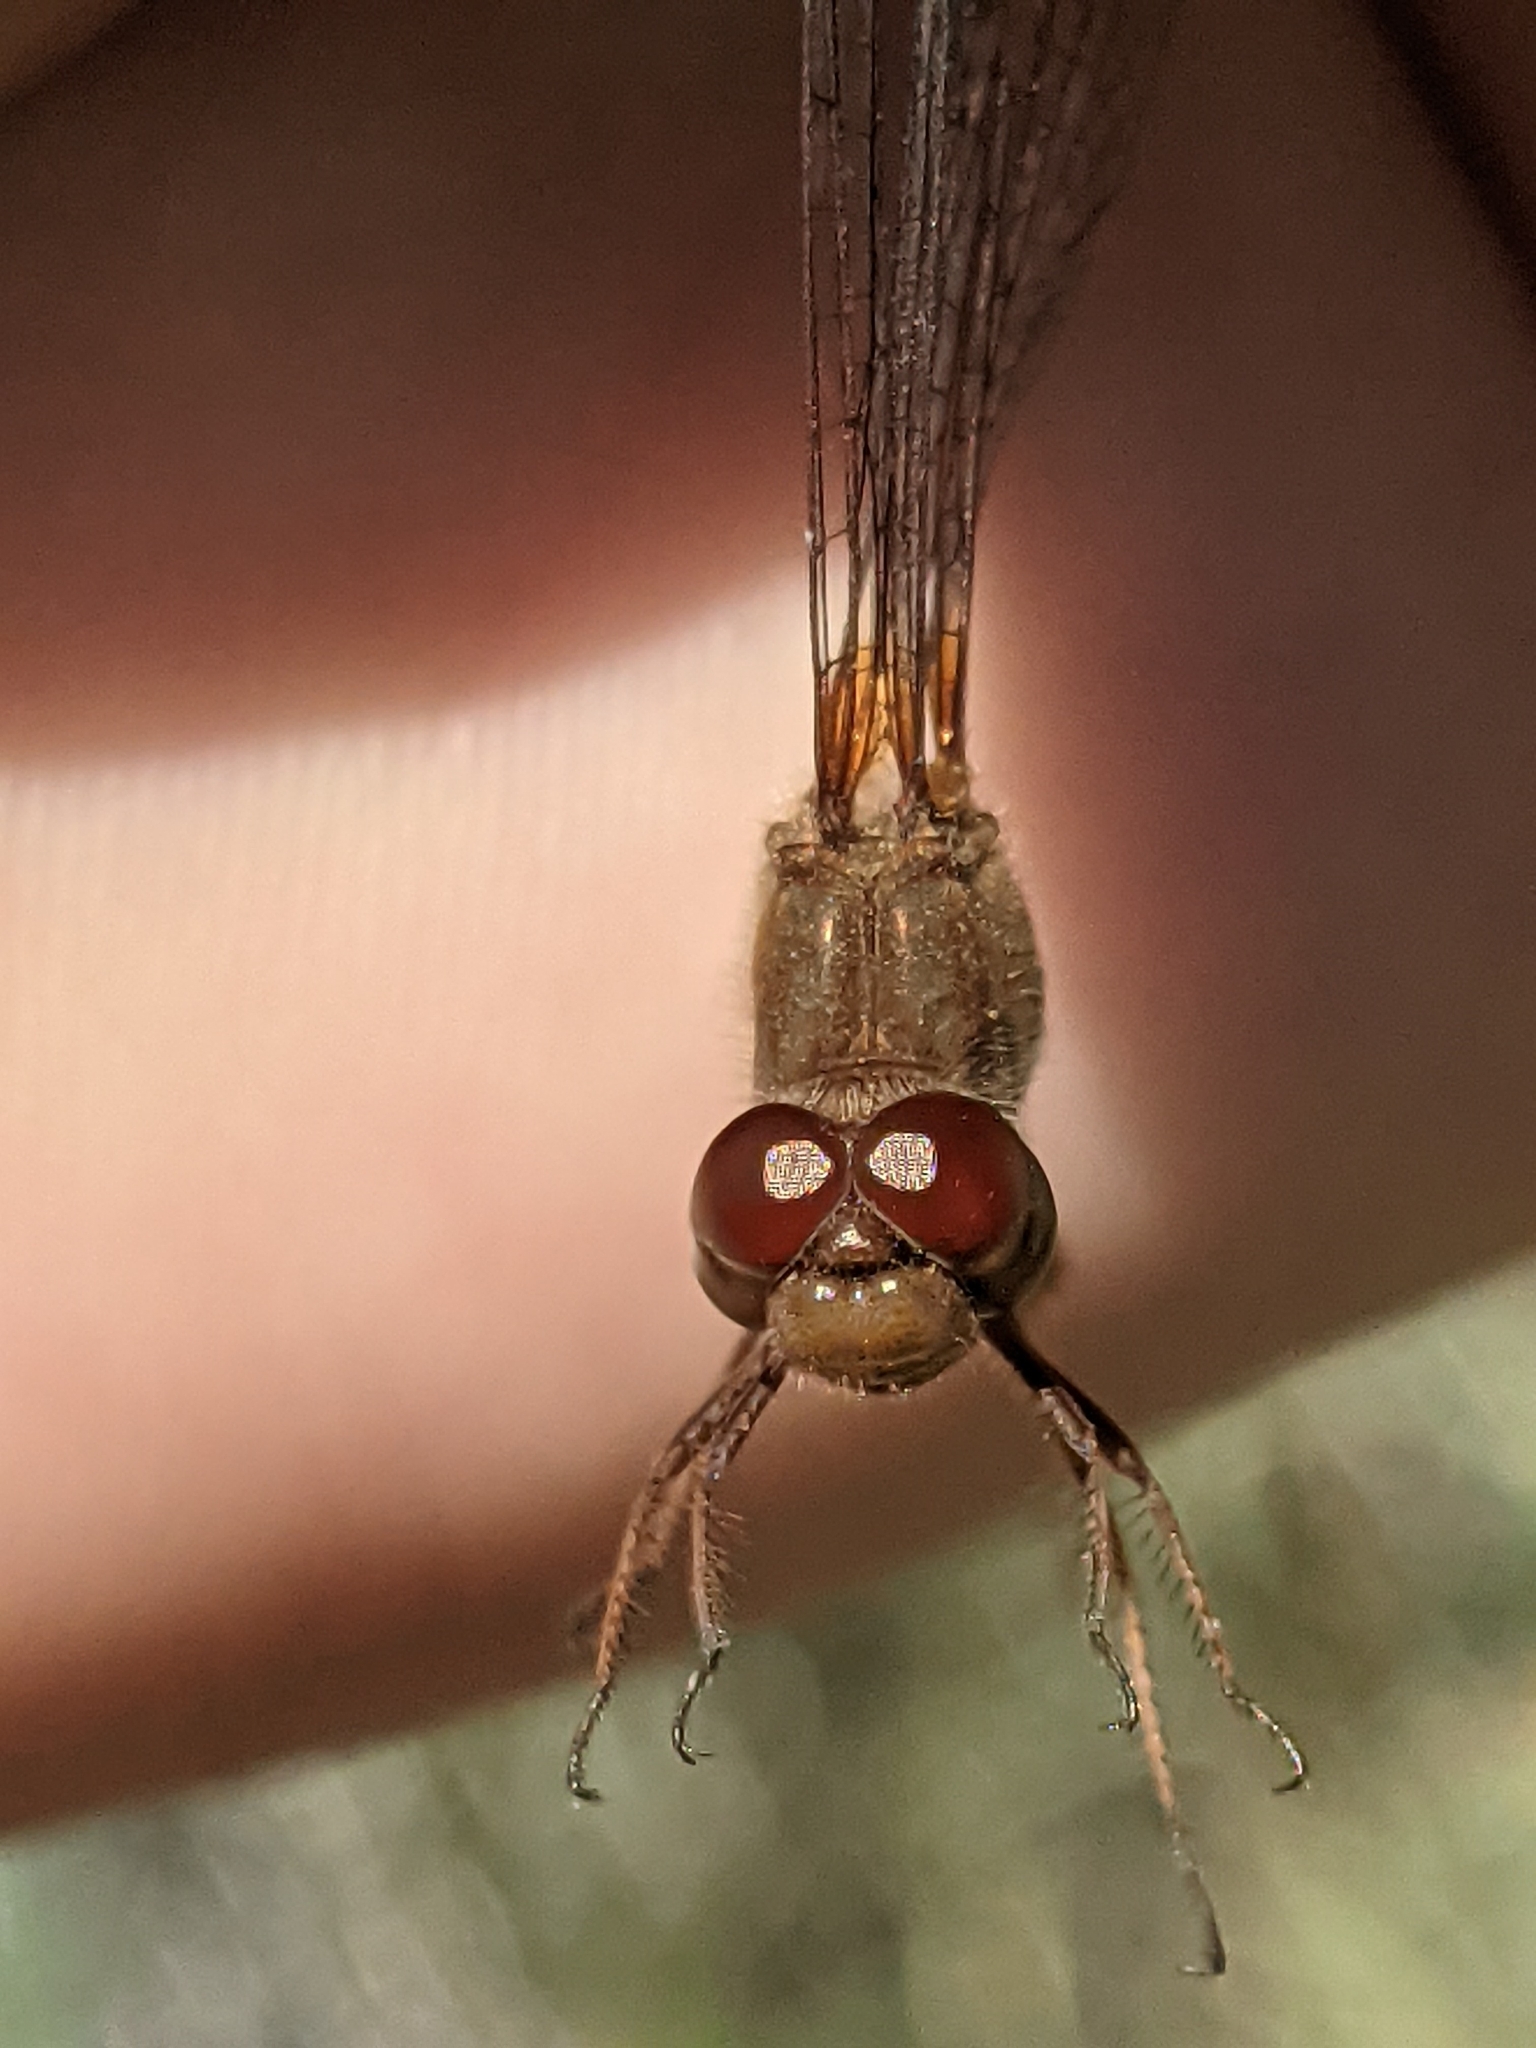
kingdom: Animalia
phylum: Arthropoda
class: Insecta
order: Odonata
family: Libellulidae
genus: Sympetrum
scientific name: Sympetrum vicinum
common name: Autumn meadowhawk
